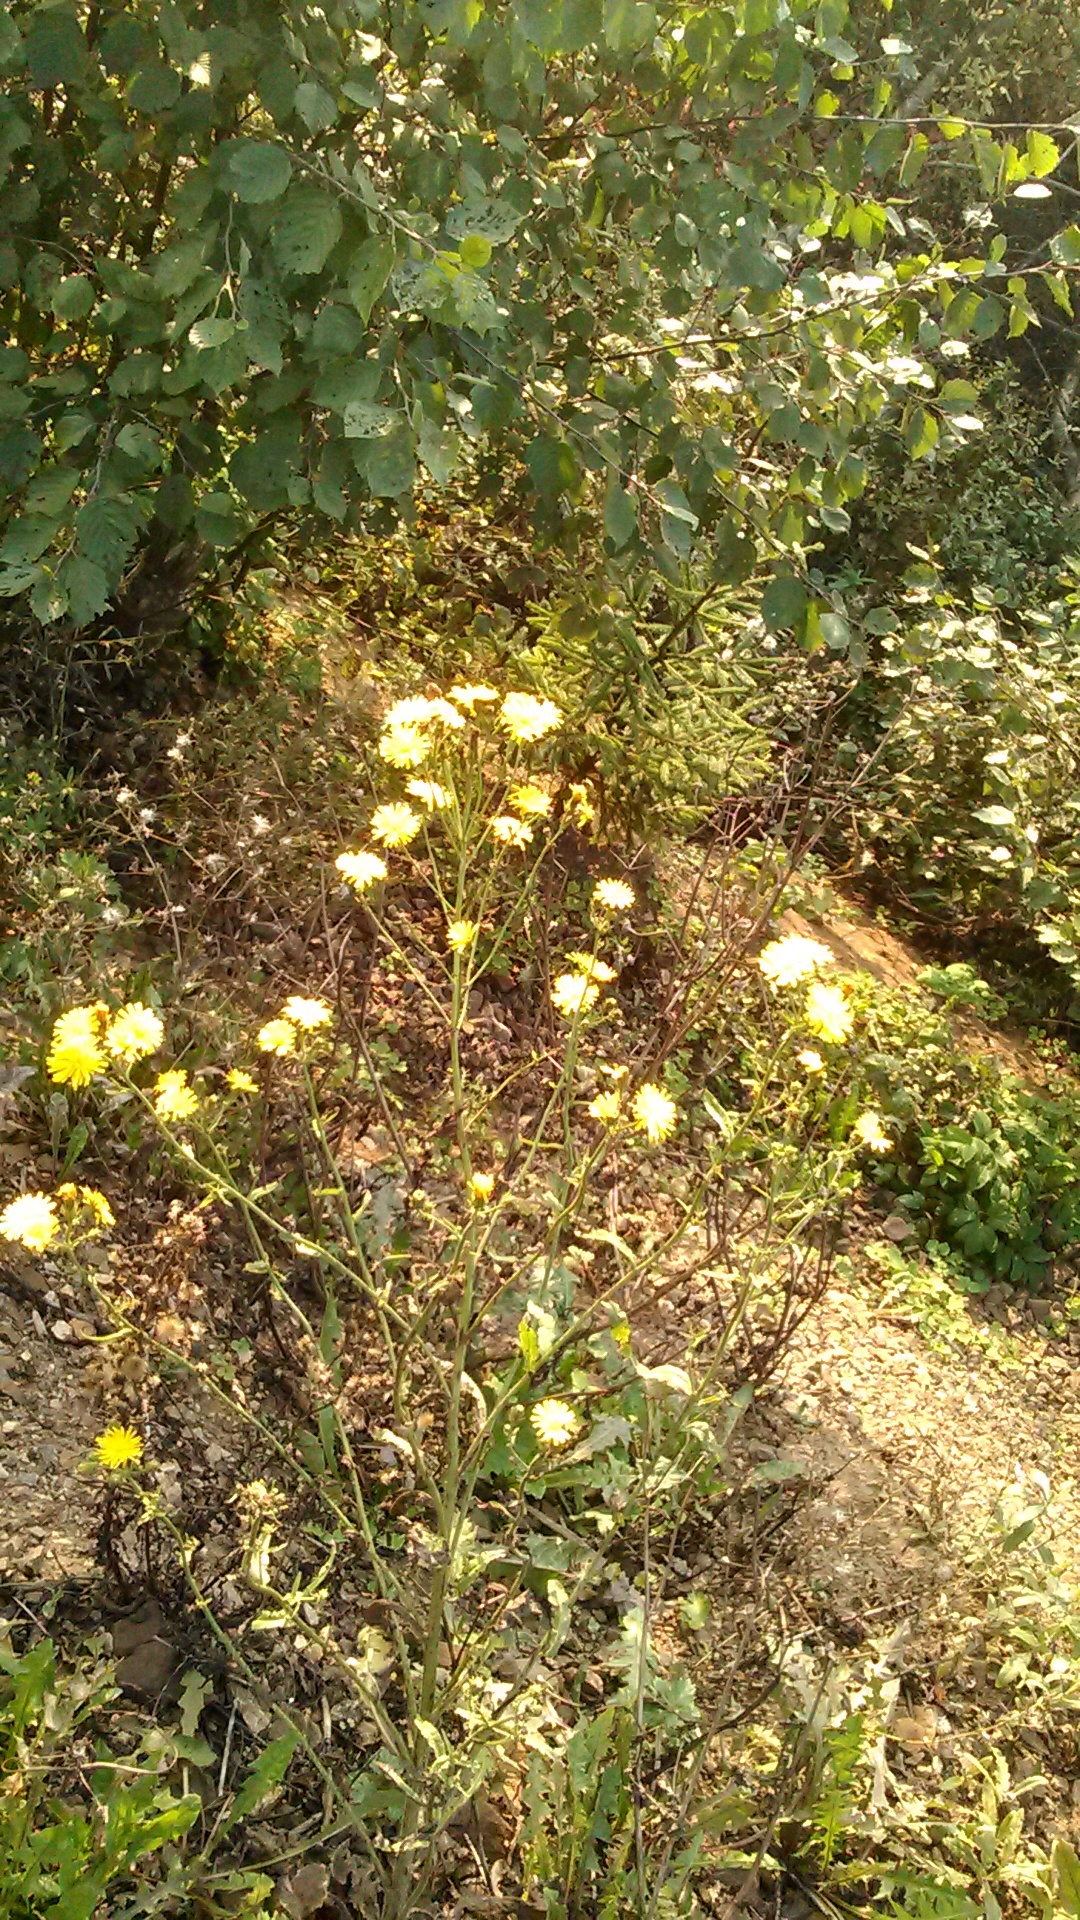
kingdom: Plantae
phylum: Tracheophyta
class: Magnoliopsida
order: Asterales
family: Asteraceae
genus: Picris
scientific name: Picris hieracioides
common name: Hawkweed oxtongue
